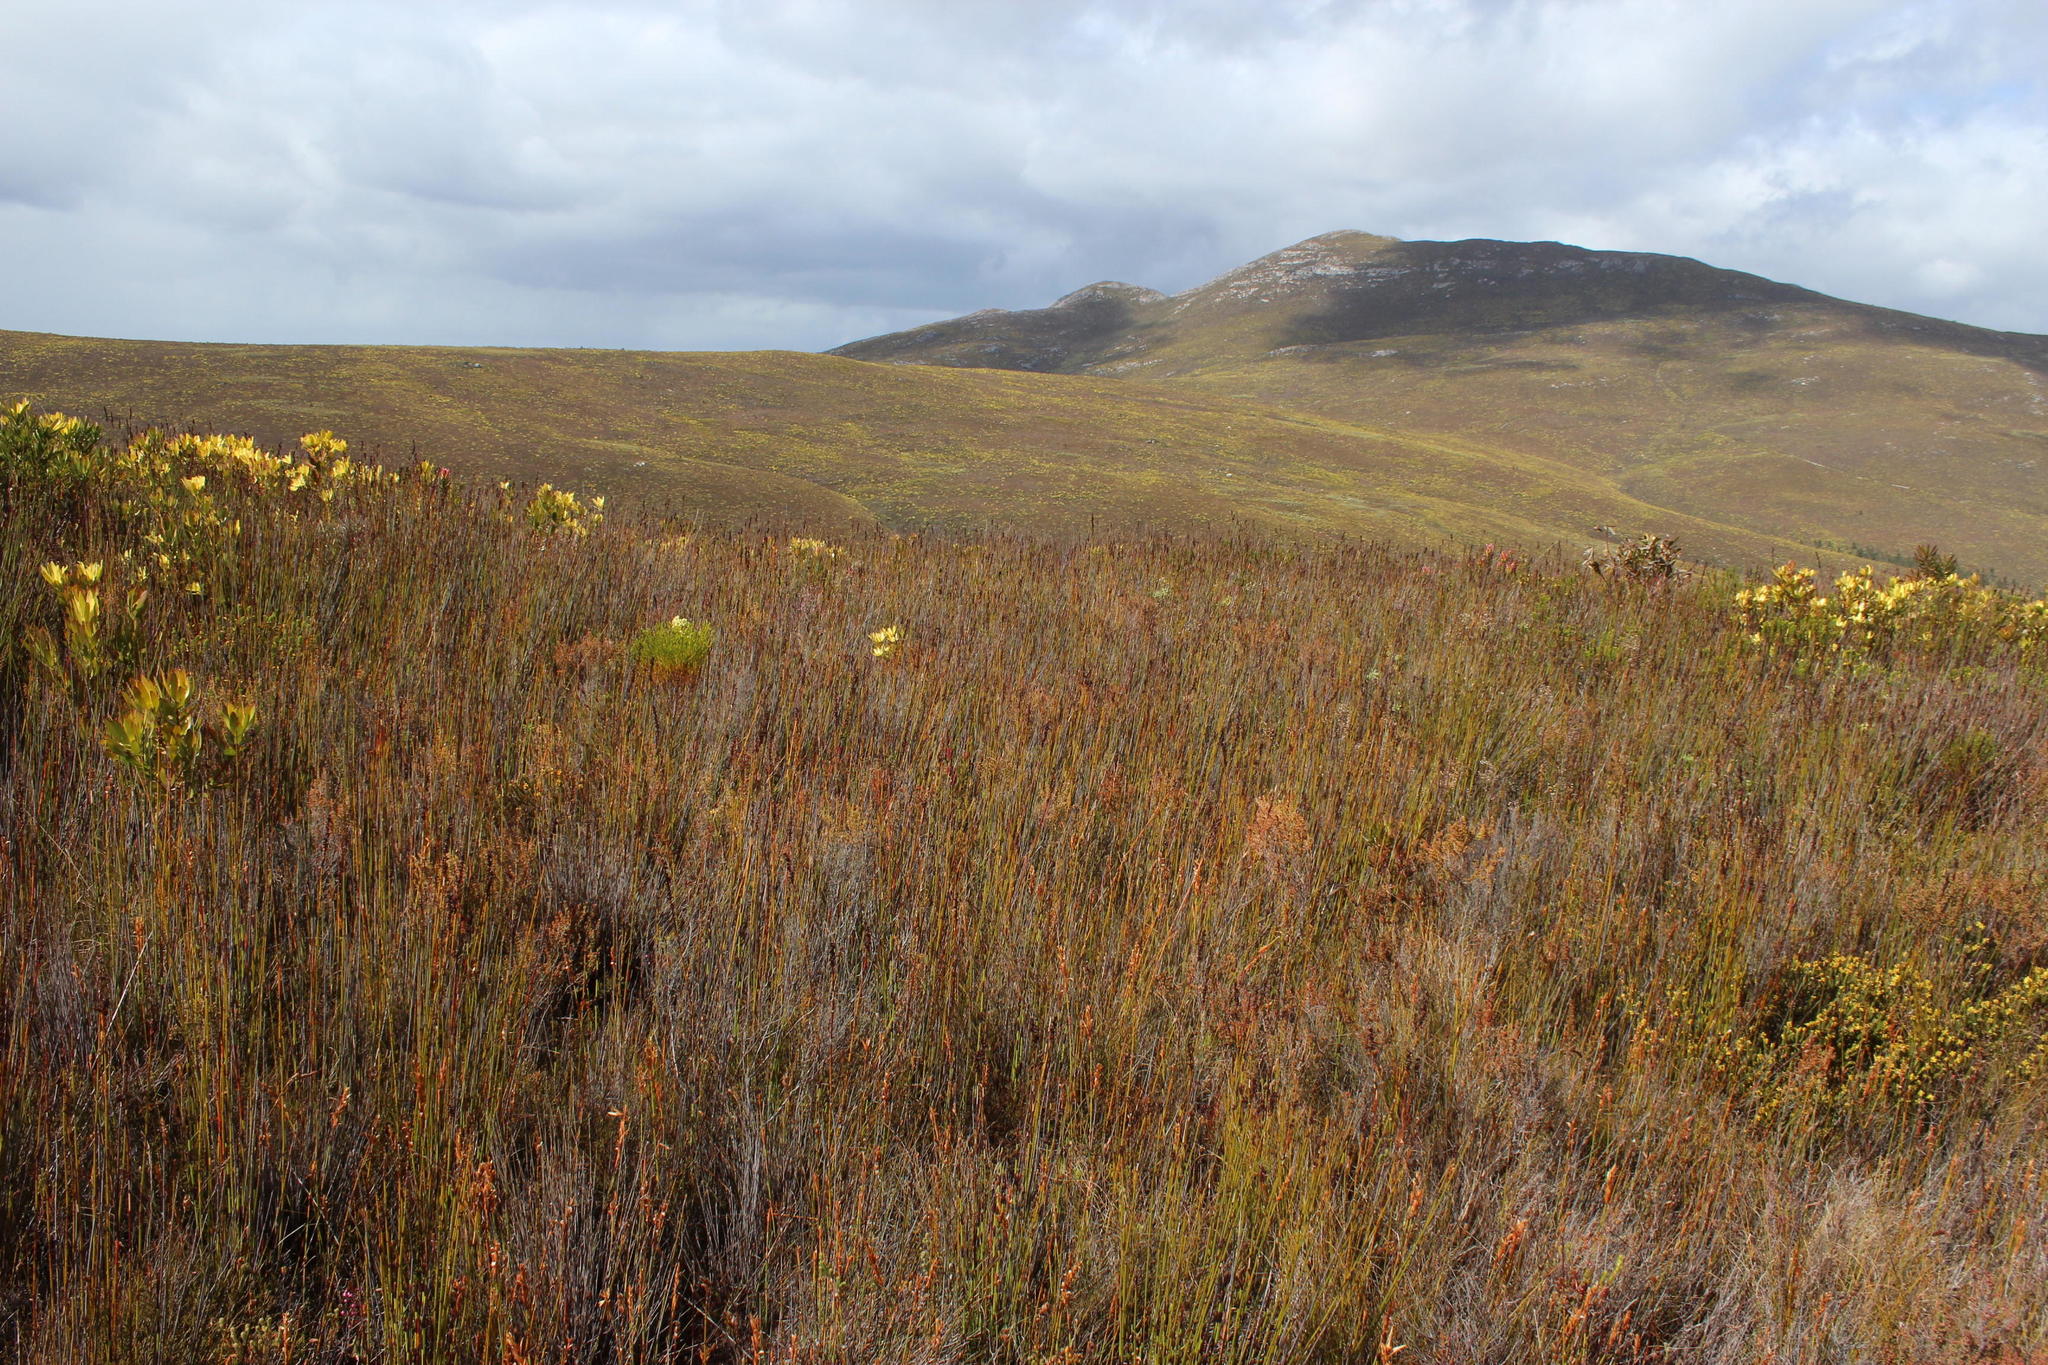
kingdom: Plantae
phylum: Tracheophyta
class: Liliopsida
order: Poales
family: Restionaceae
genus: Elegia
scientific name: Elegia juncea
